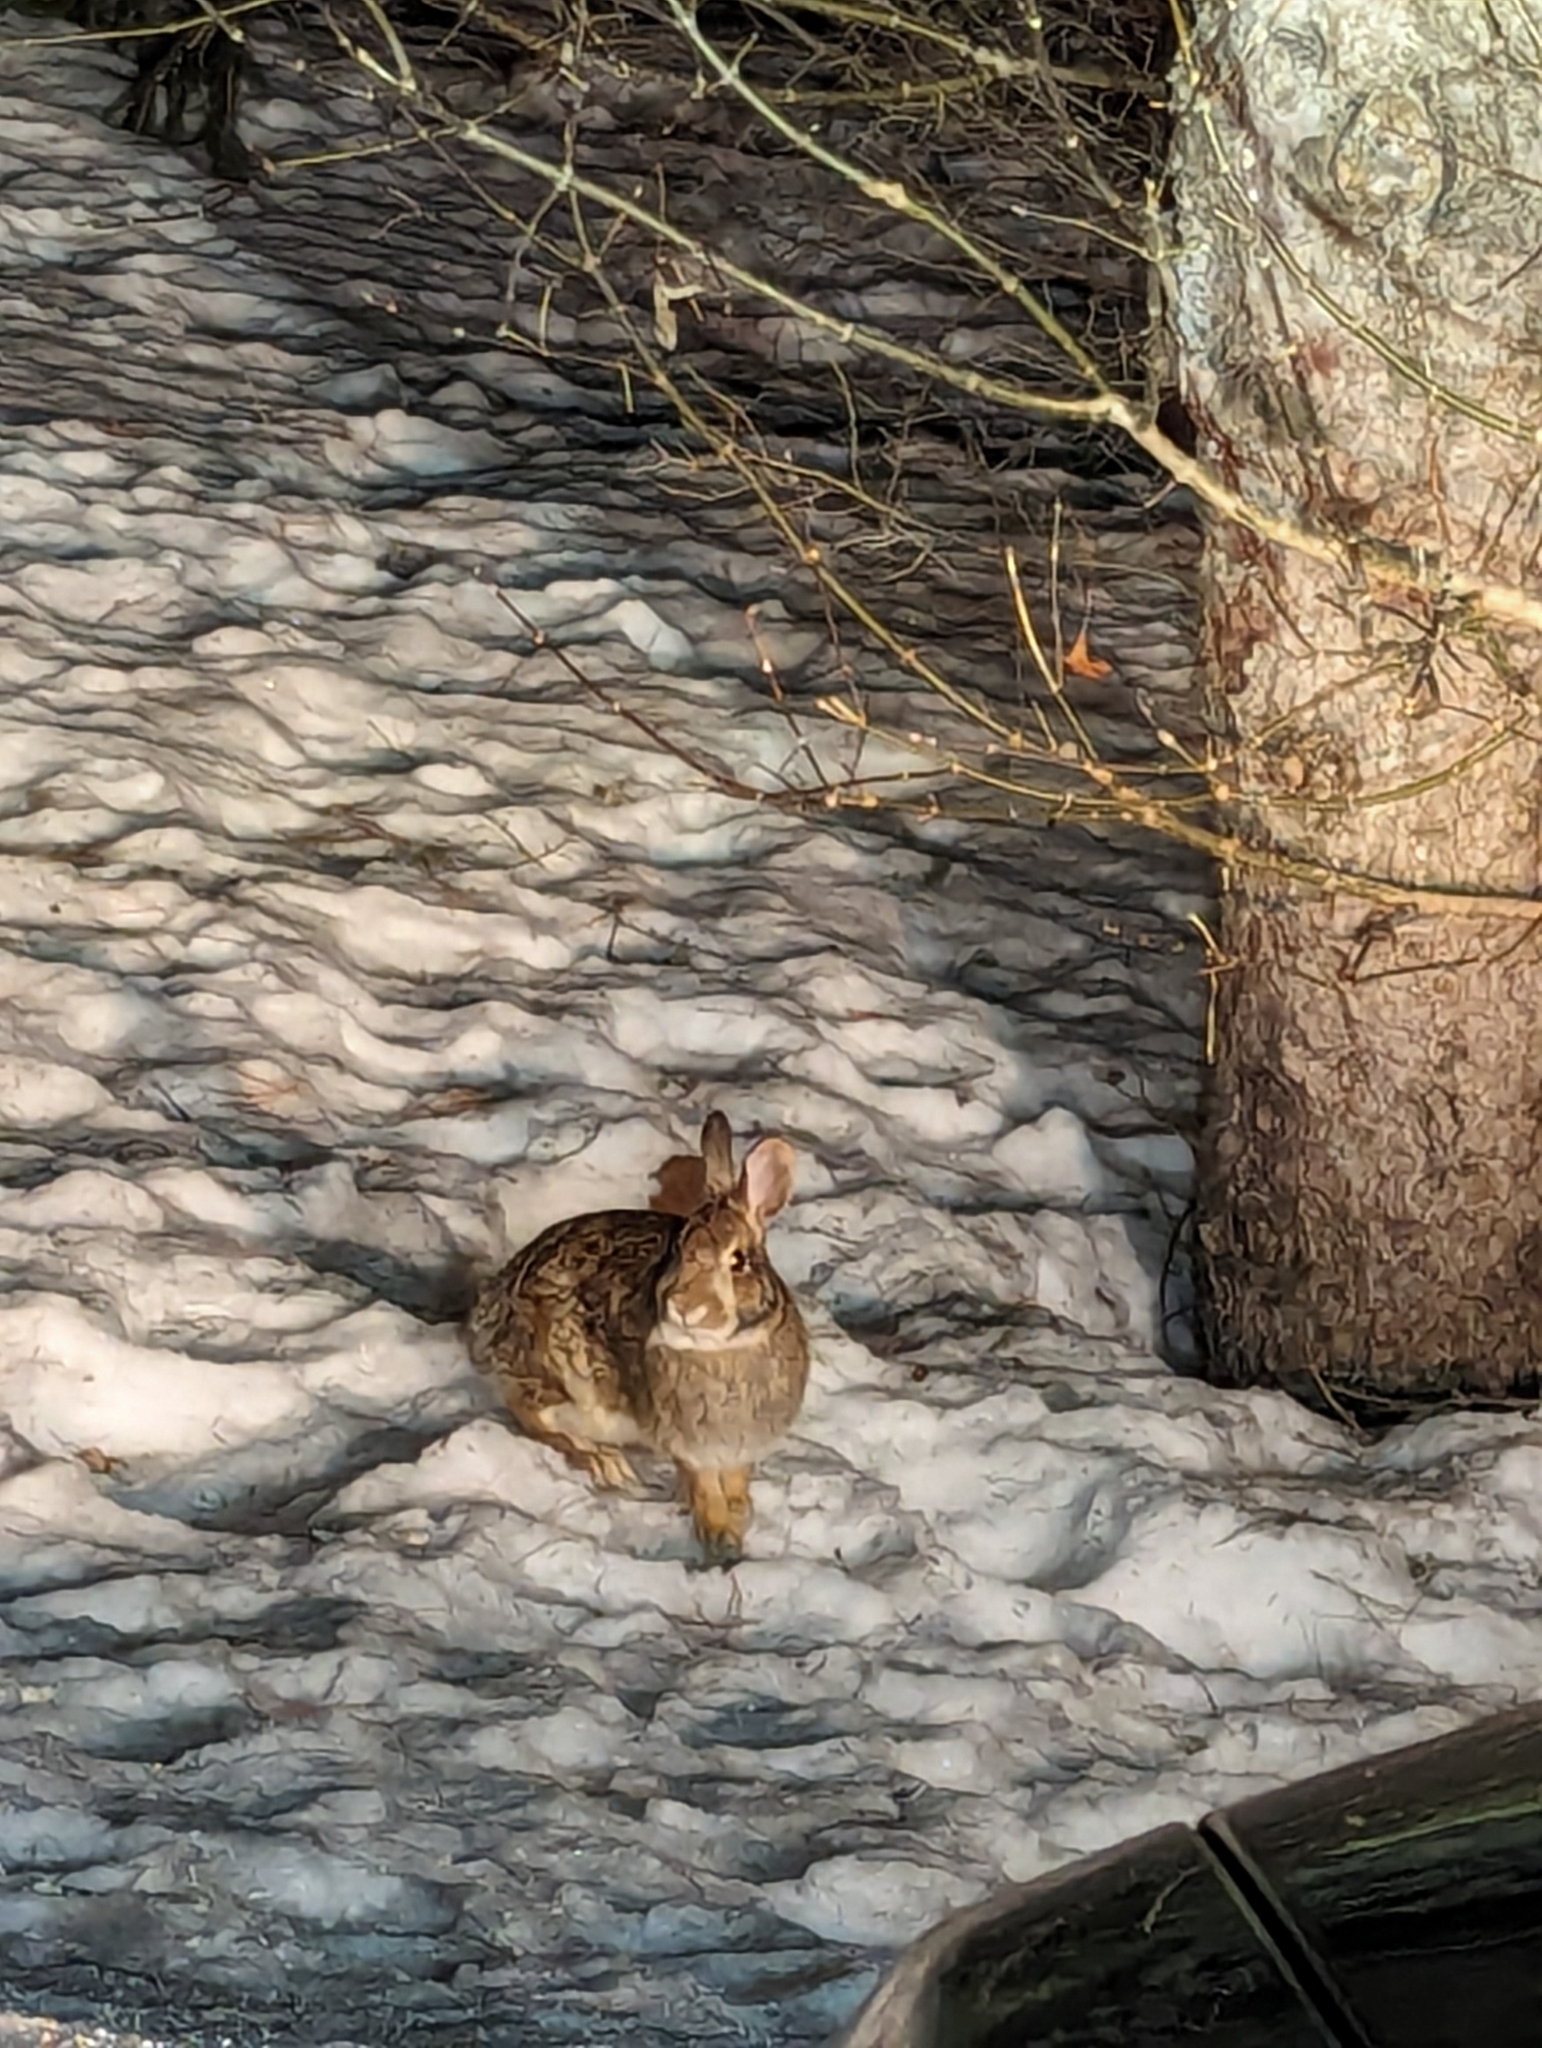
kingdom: Animalia
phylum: Chordata
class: Mammalia
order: Lagomorpha
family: Leporidae
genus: Sylvilagus
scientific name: Sylvilagus floridanus
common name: Eastern cottontail
